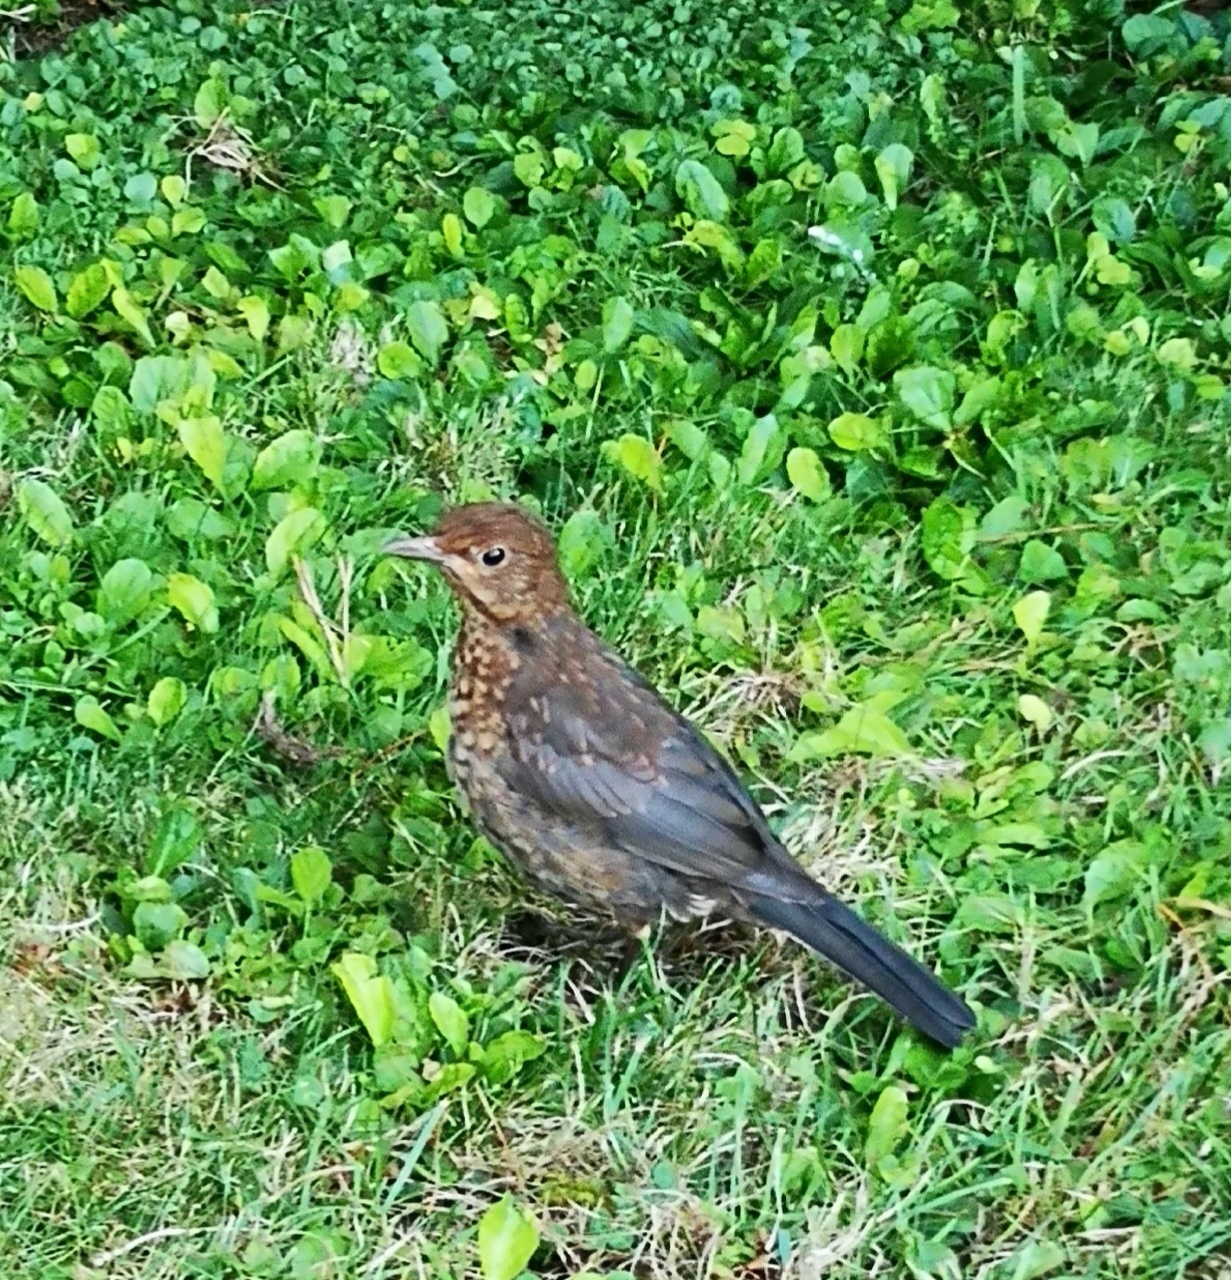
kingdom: Animalia
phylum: Chordata
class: Aves
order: Passeriformes
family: Turdidae
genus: Turdus
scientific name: Turdus merula
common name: Common blackbird
